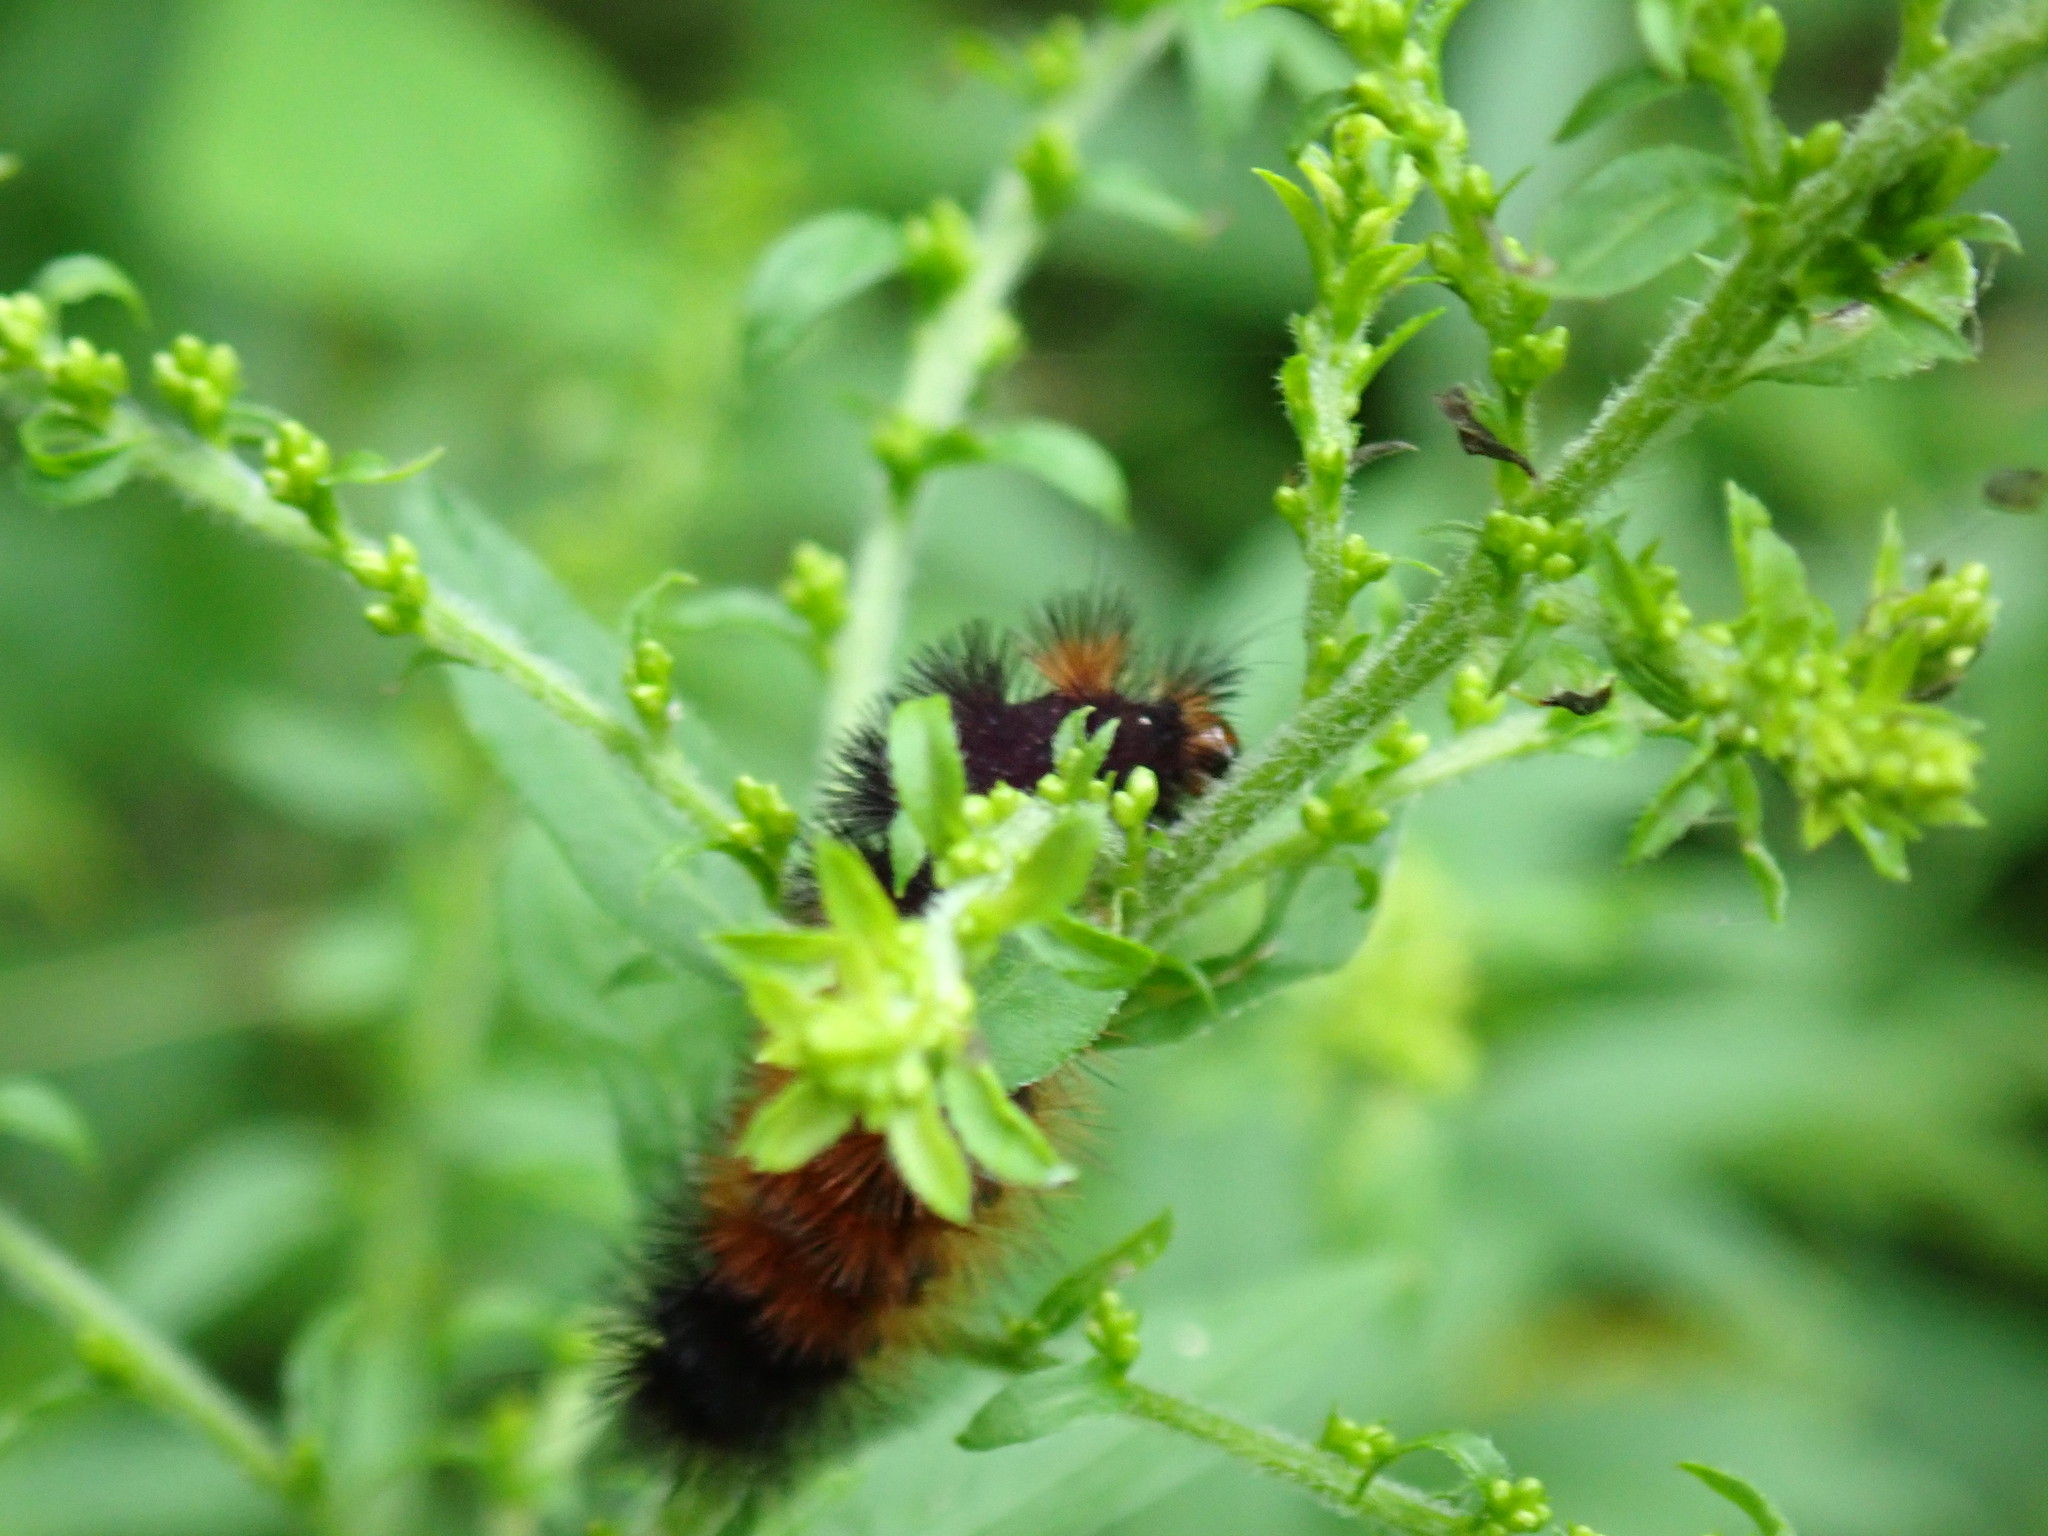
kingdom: Animalia
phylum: Arthropoda
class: Insecta
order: Lepidoptera
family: Erebidae
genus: Pyrrharctia
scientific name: Pyrrharctia isabella
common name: Isabella tiger moth
